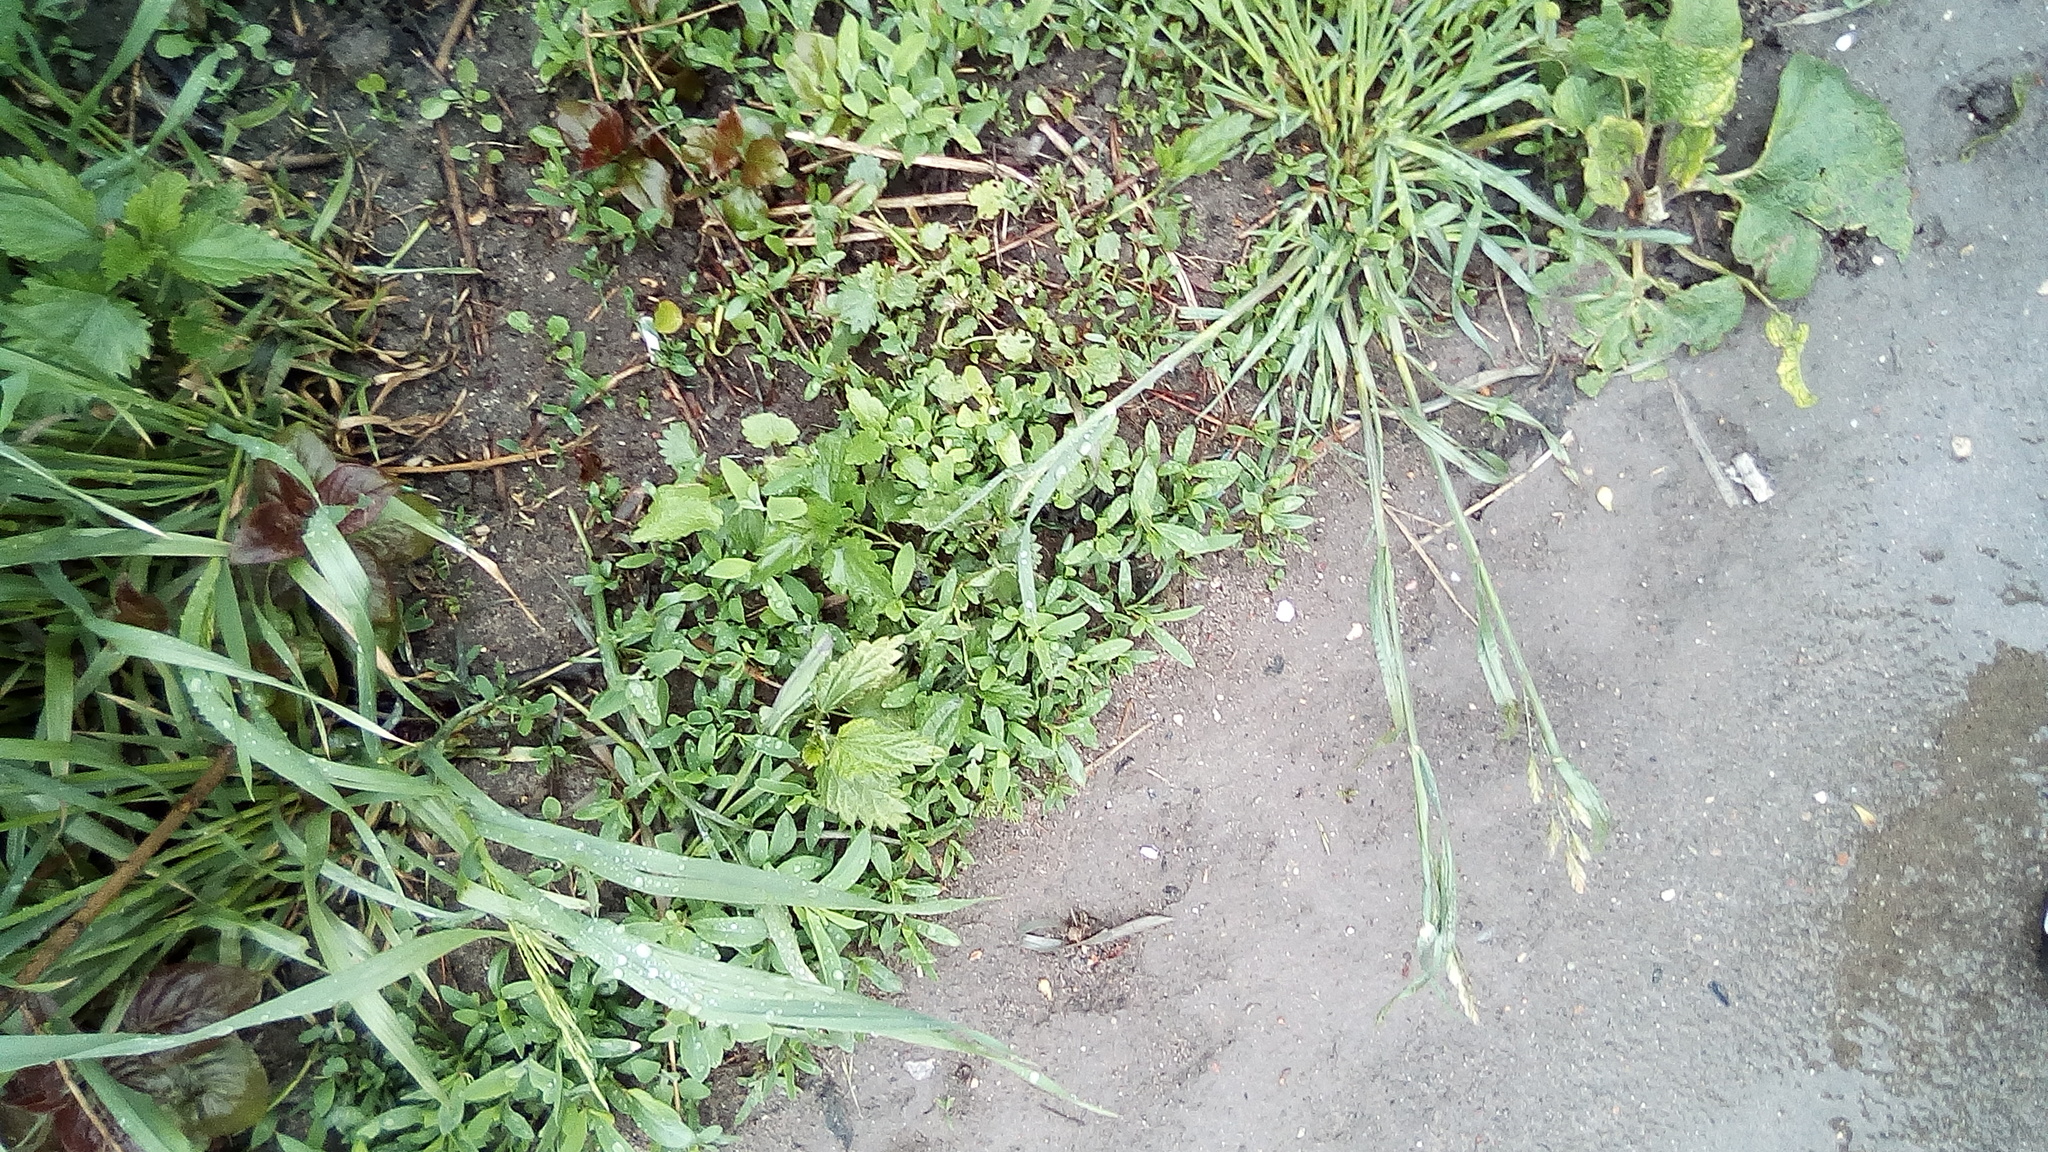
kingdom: Plantae
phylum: Tracheophyta
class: Liliopsida
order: Poales
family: Poaceae
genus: Dactylis
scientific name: Dactylis glomerata
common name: Orchardgrass
